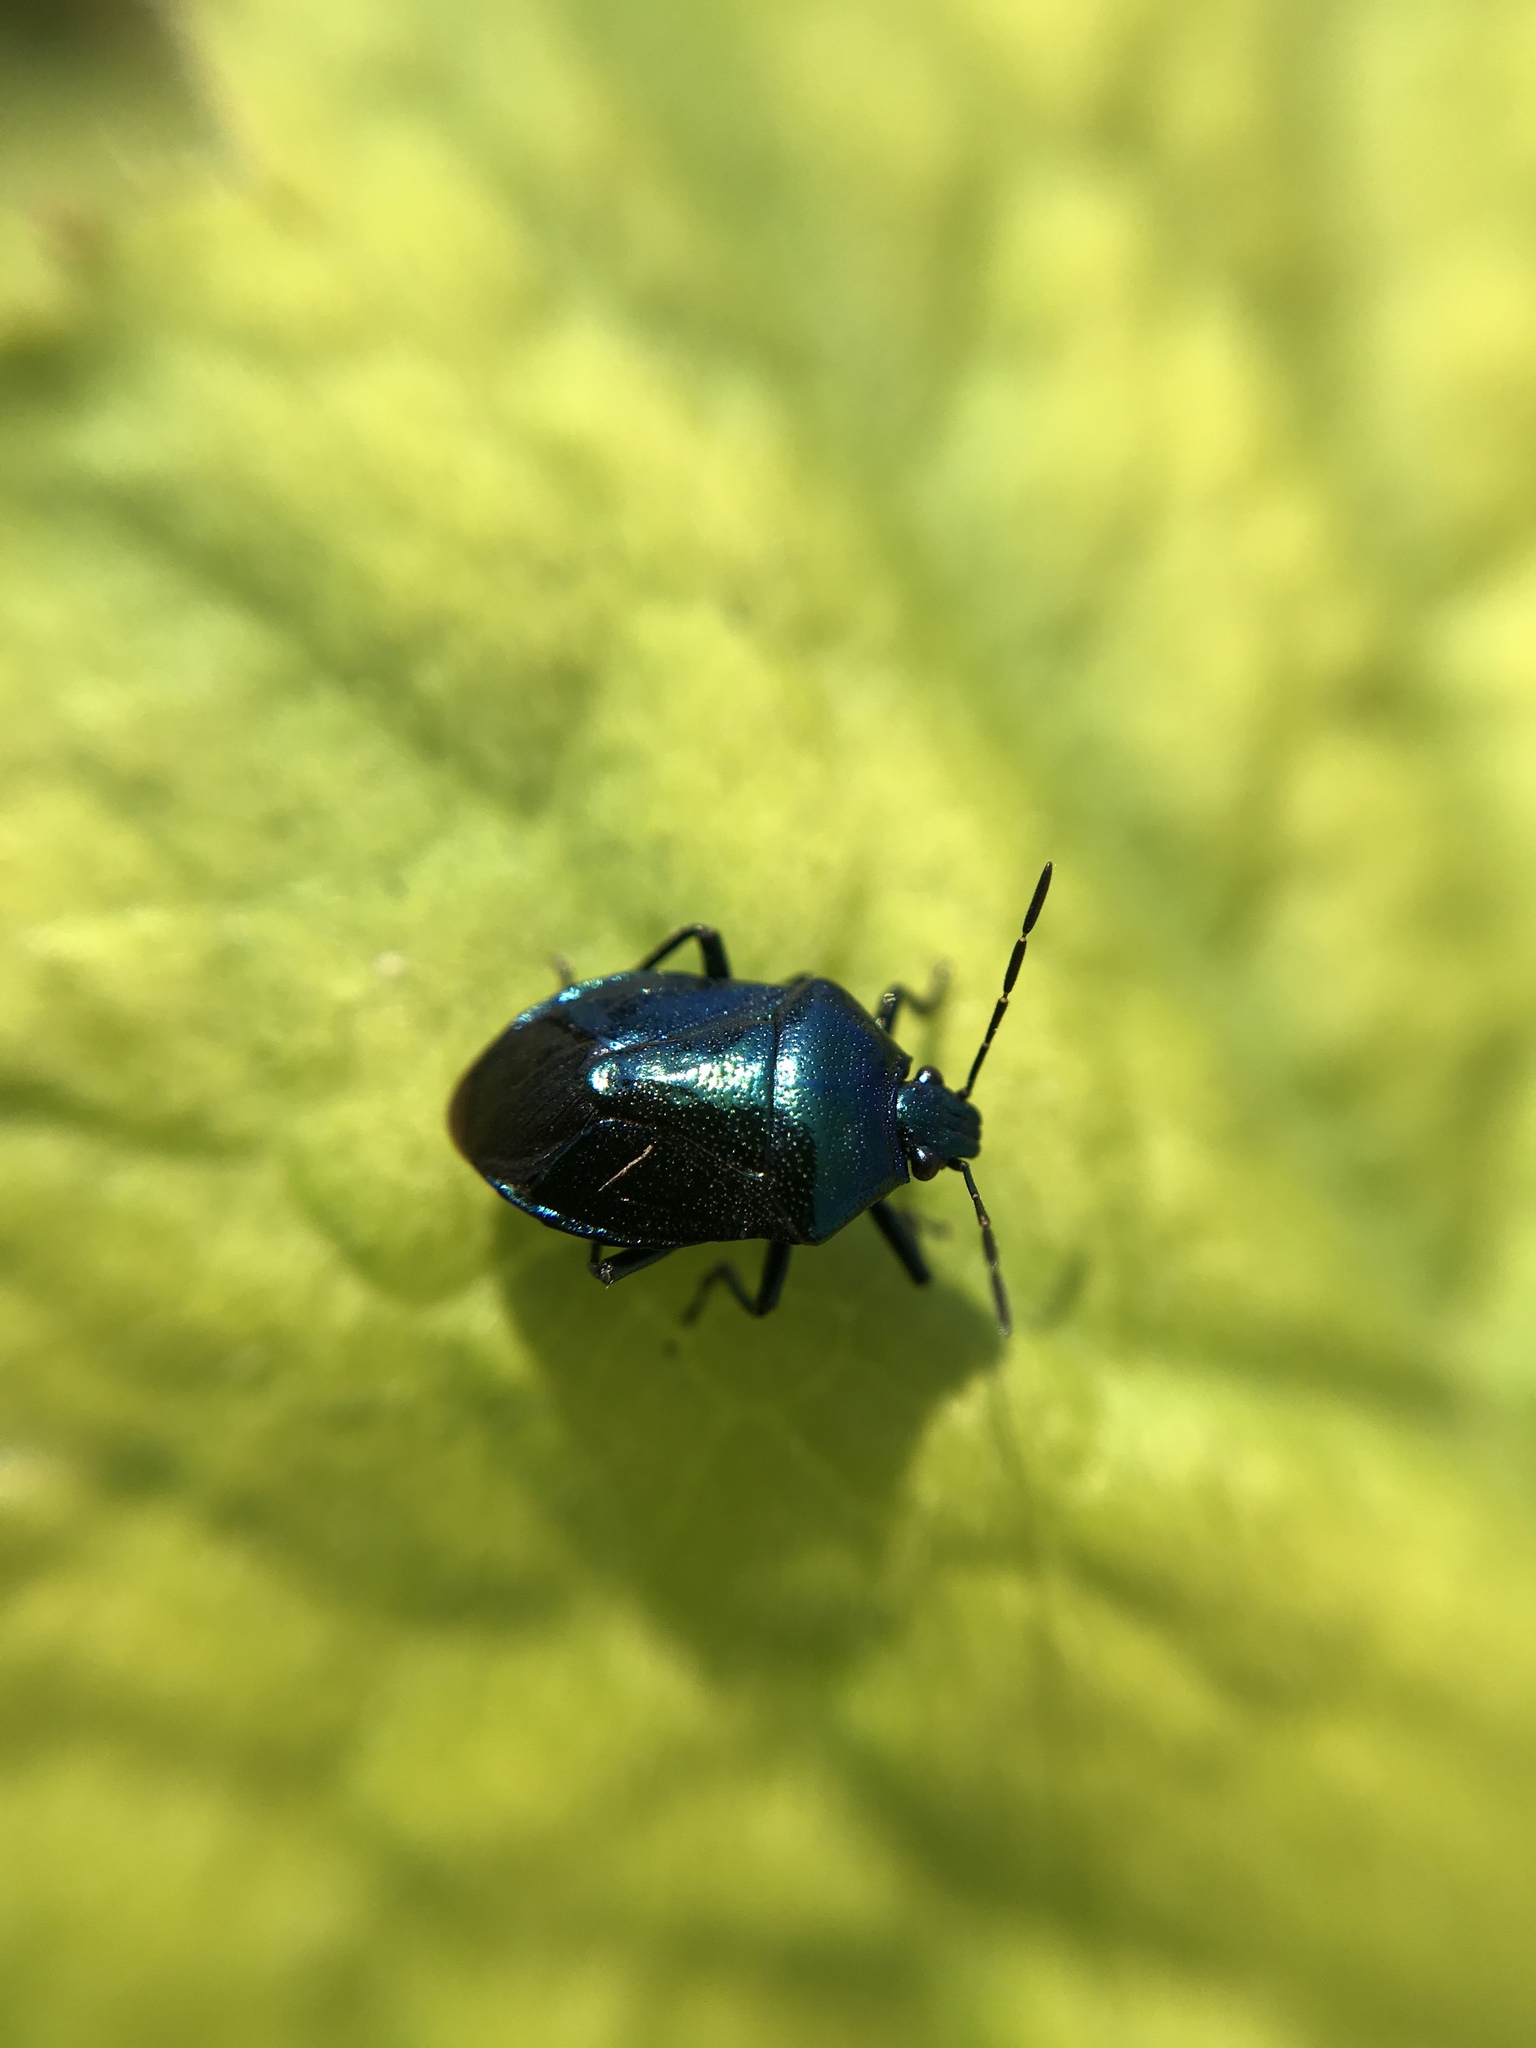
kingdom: Animalia
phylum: Arthropoda
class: Insecta
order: Hemiptera
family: Pentatomidae
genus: Zicrona
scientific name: Zicrona caerulea
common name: Blue shieldbug
